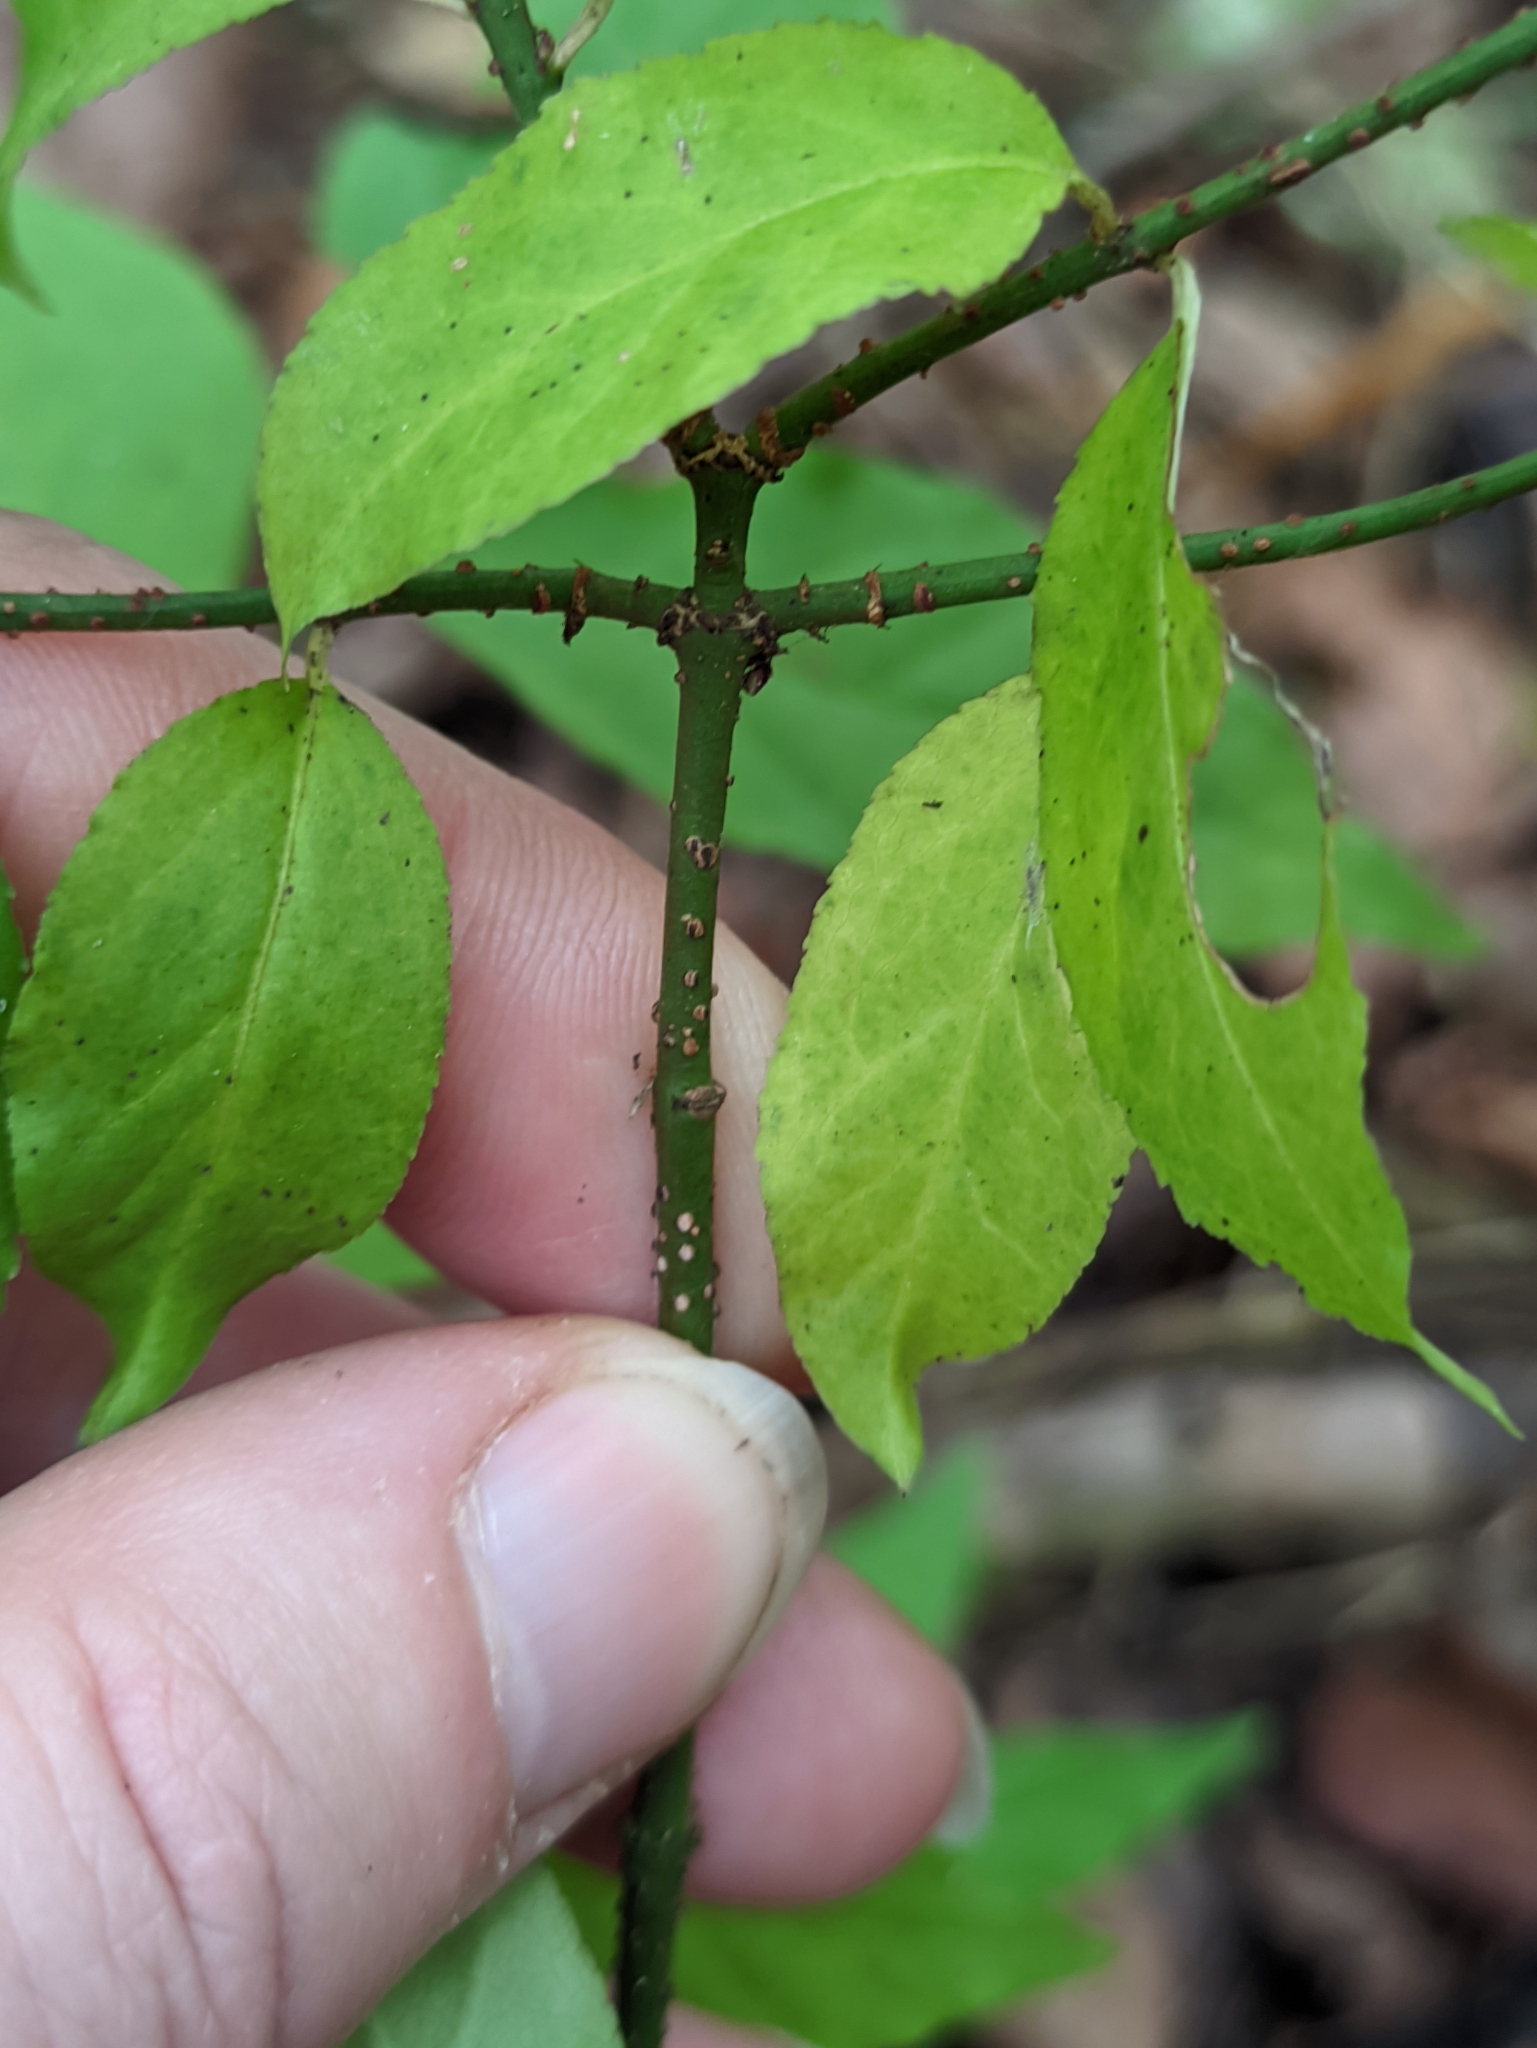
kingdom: Plantae
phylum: Tracheophyta
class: Magnoliopsida
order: Celastrales
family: Celastraceae
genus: Euonymus
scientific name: Euonymus verrucosus
